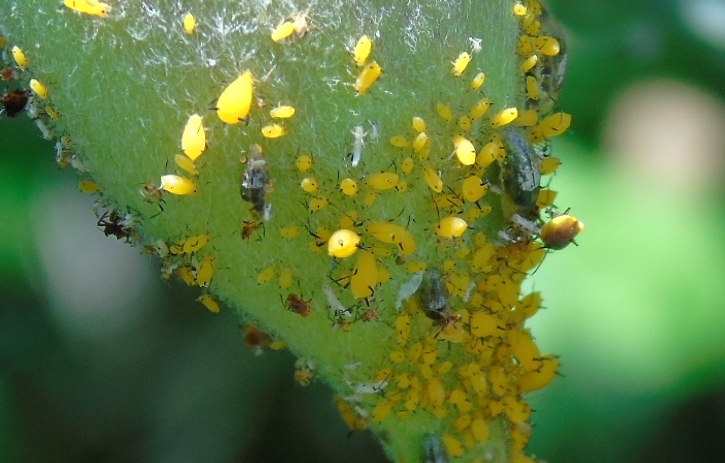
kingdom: Animalia
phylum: Arthropoda
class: Insecta
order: Hemiptera
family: Aphididae
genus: Aphis
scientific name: Aphis nerii
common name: Oleander aphid
